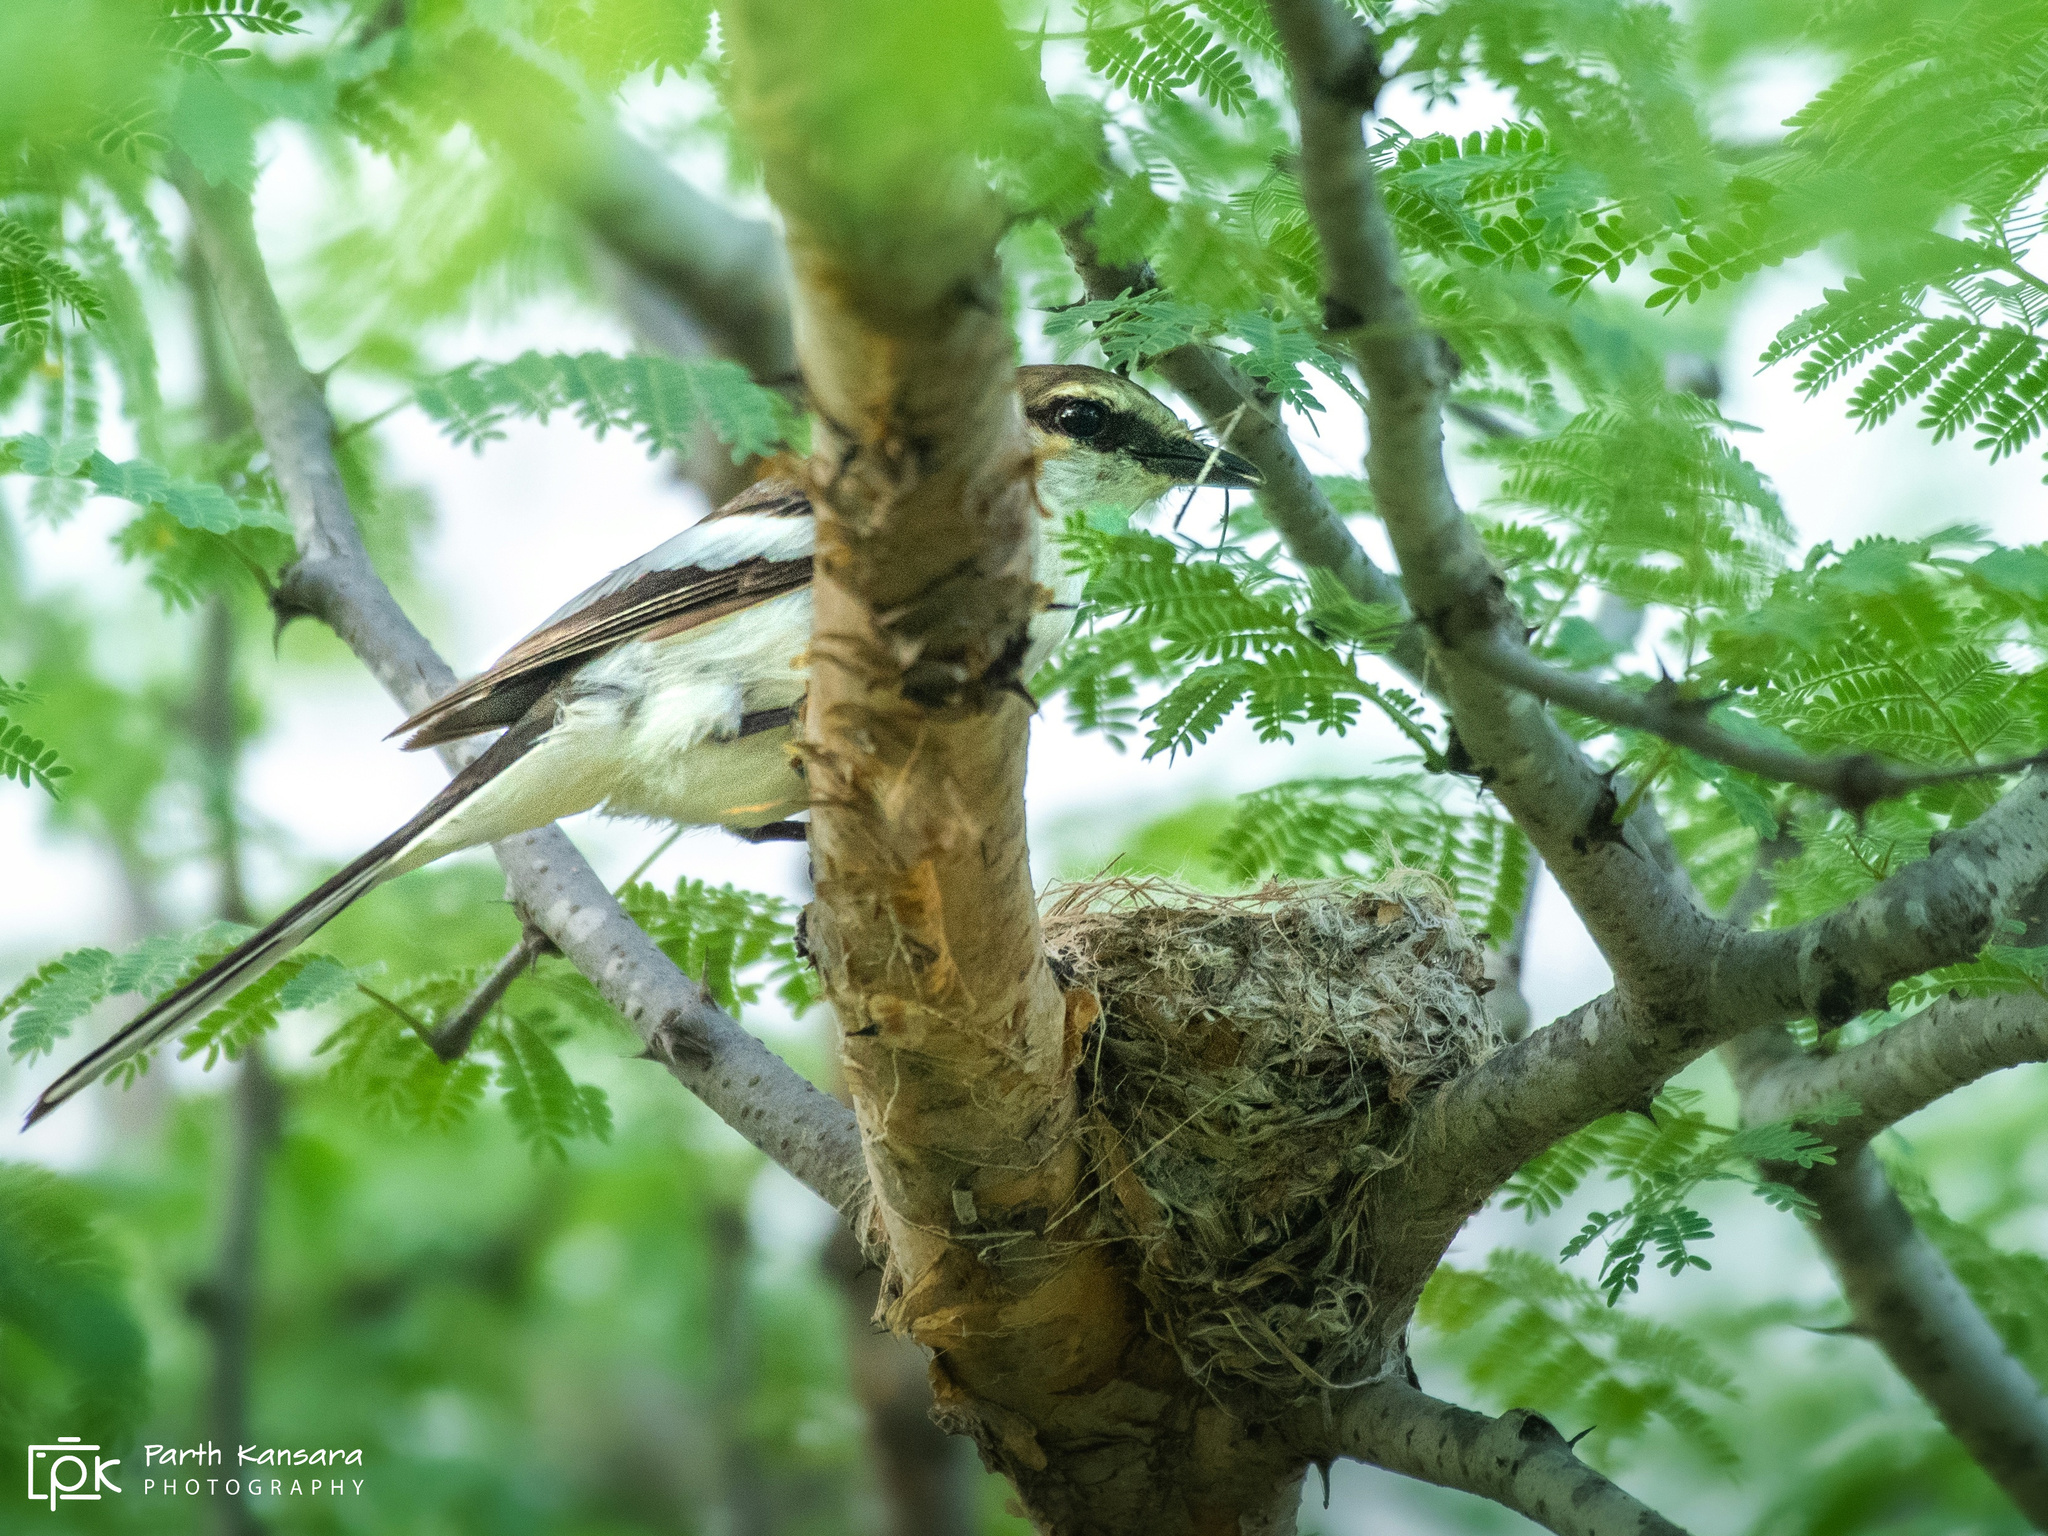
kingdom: Animalia
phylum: Chordata
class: Aves
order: Passeriformes
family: Campephagidae
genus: Pericrocotus
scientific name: Pericrocotus erythropygius
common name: White-bellied minivet
